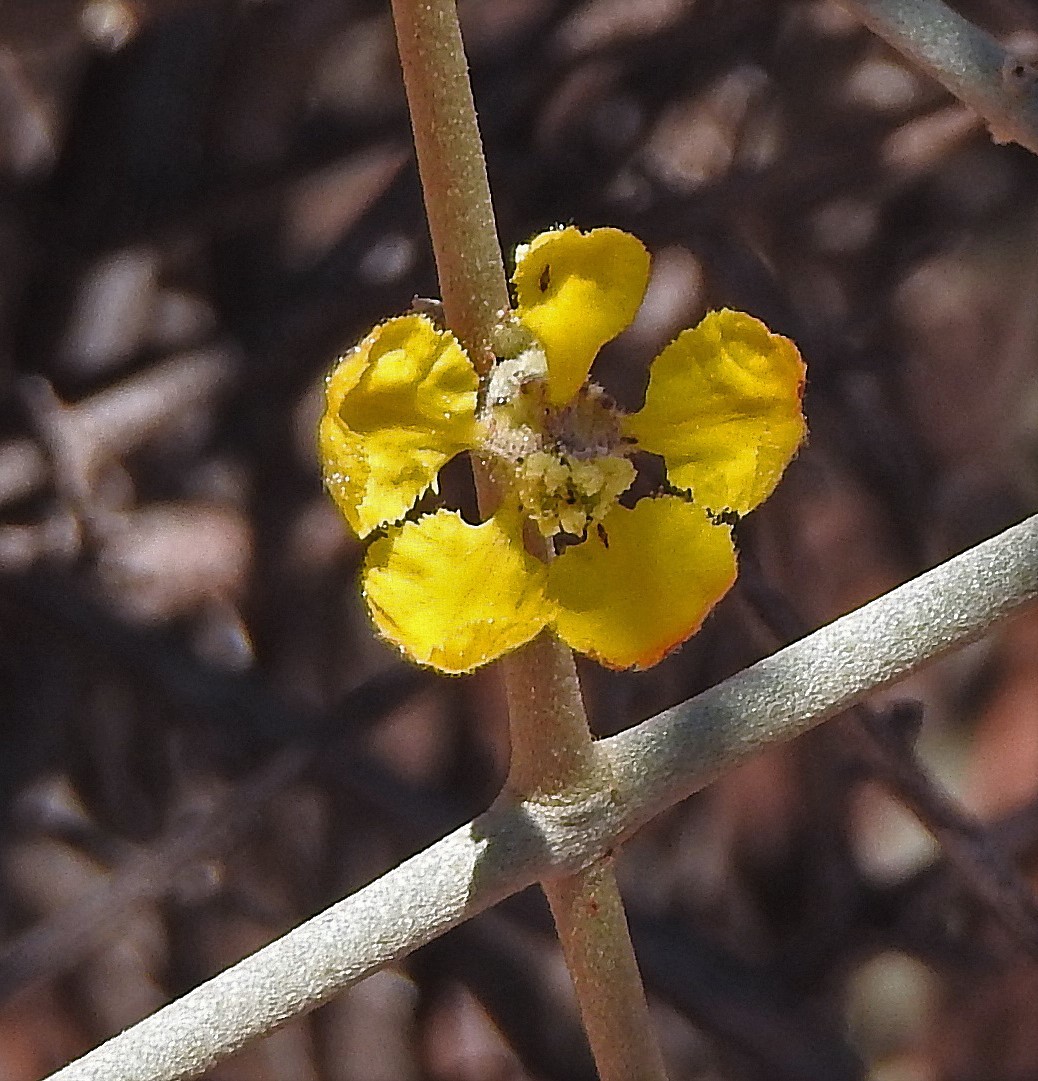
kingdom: Plantae
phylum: Tracheophyta
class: Magnoliopsida
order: Malpighiales
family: Malpighiaceae
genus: Tricomaria
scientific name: Tricomaria usillo
